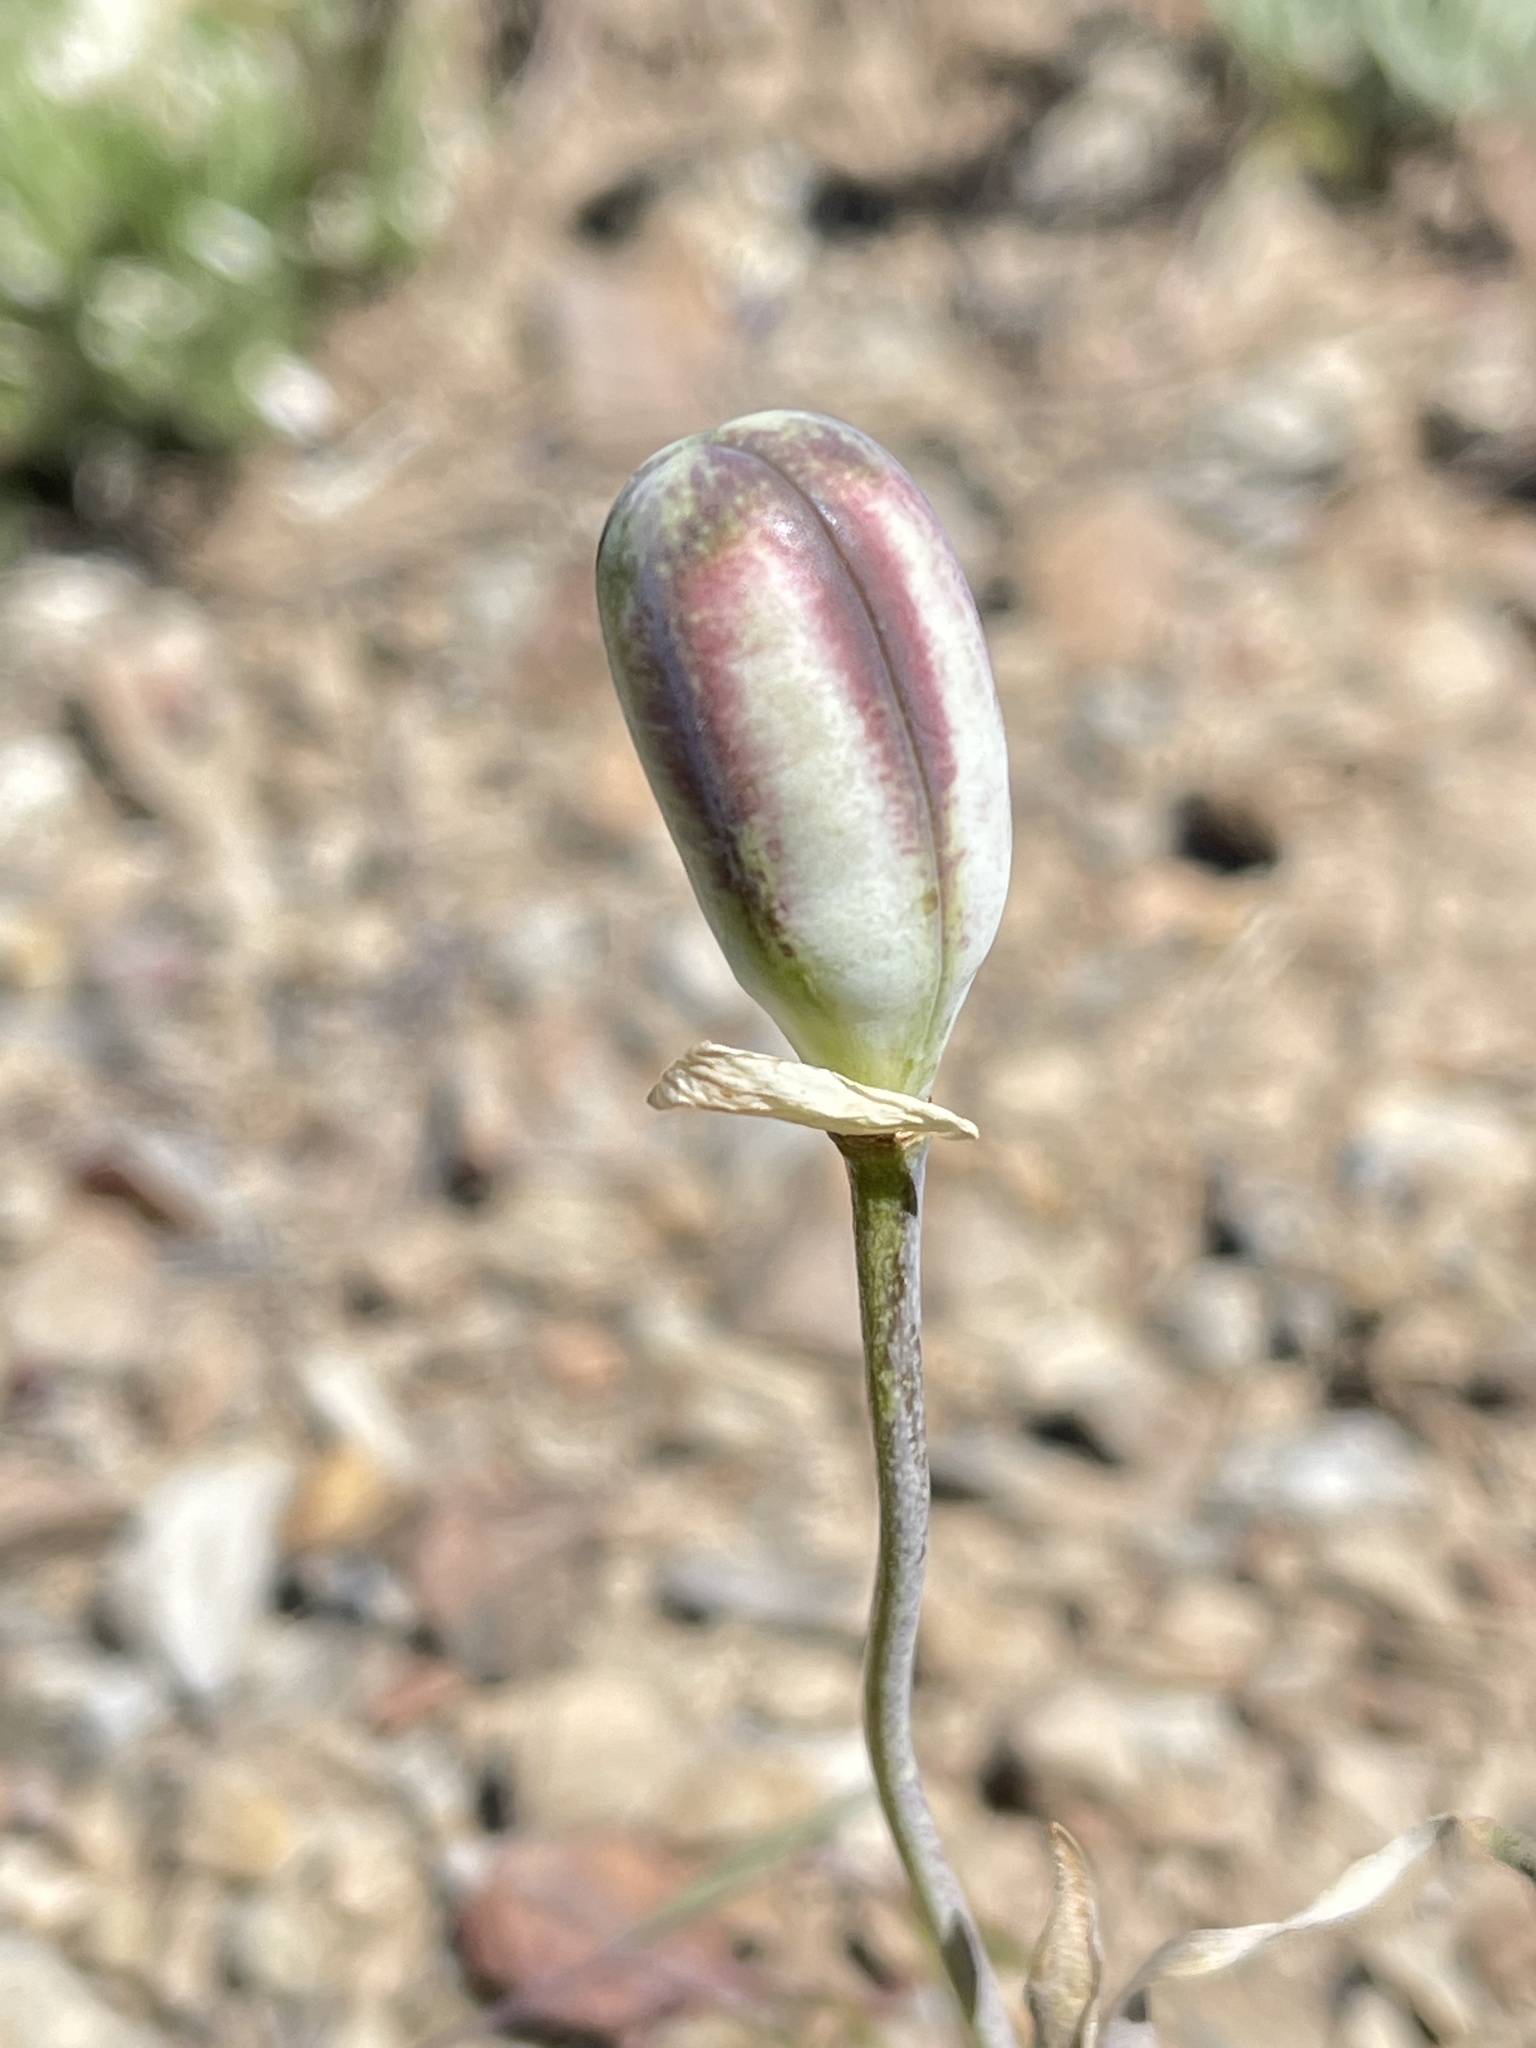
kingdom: Plantae
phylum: Tracheophyta
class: Liliopsida
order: Liliales
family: Liliaceae
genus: Fritillaria
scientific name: Fritillaria pudica
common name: Yellow fritillary
